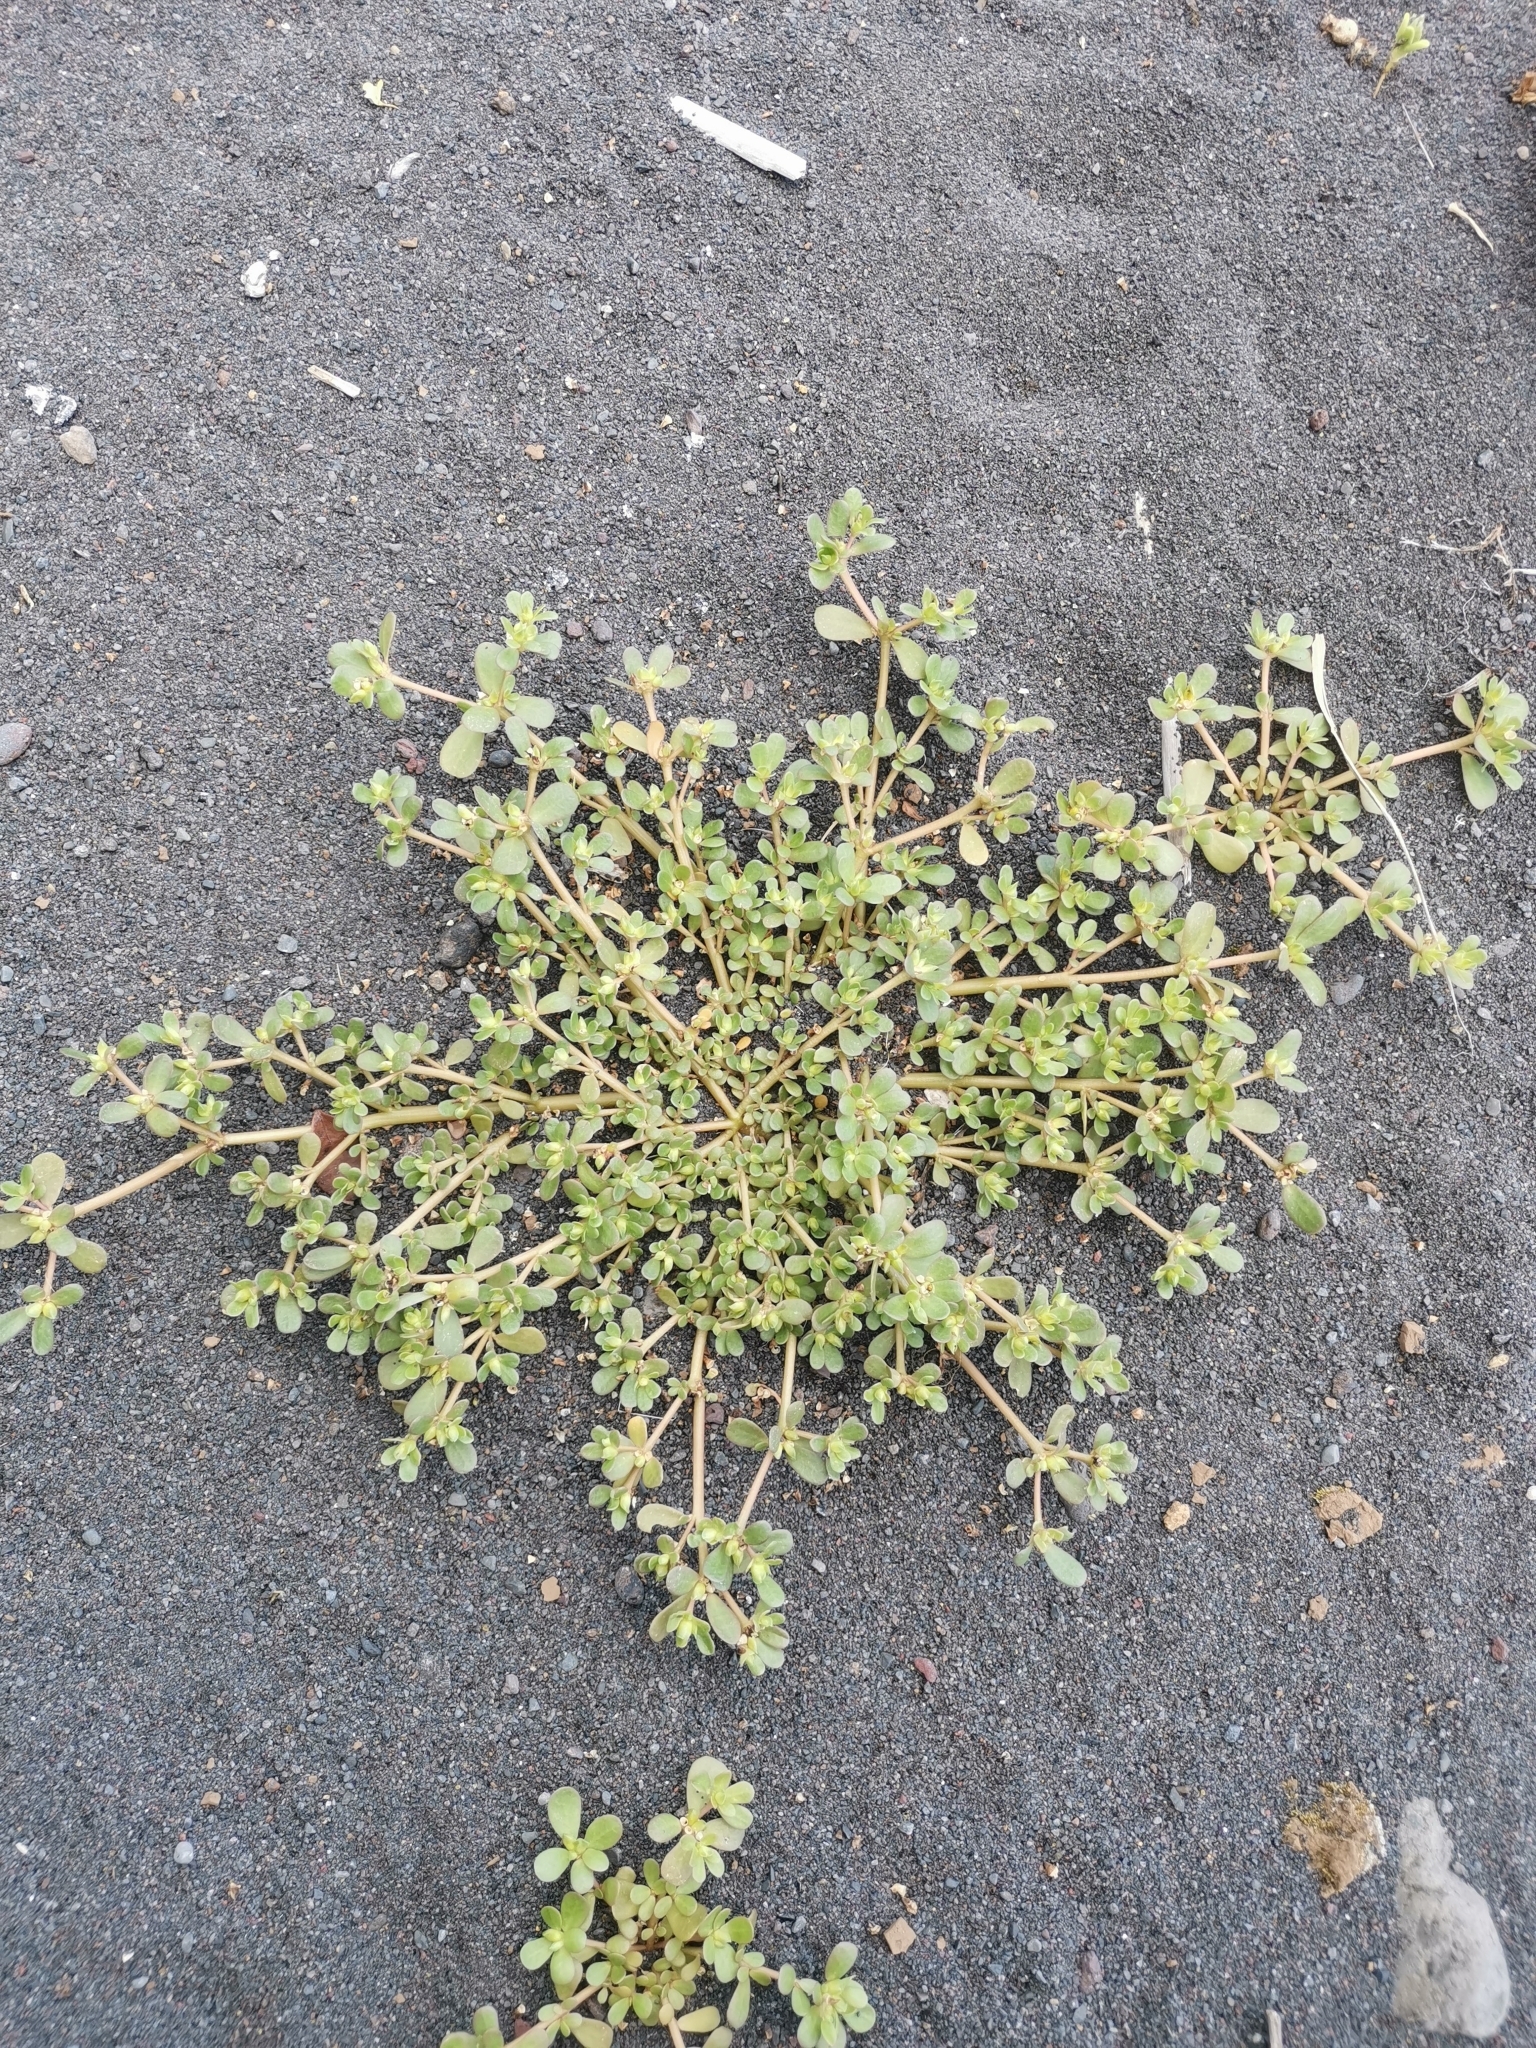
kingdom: Plantae
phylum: Tracheophyta
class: Magnoliopsida
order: Caryophyllales
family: Portulacaceae
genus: Portulaca
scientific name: Portulaca oleracea
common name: Common purslane
